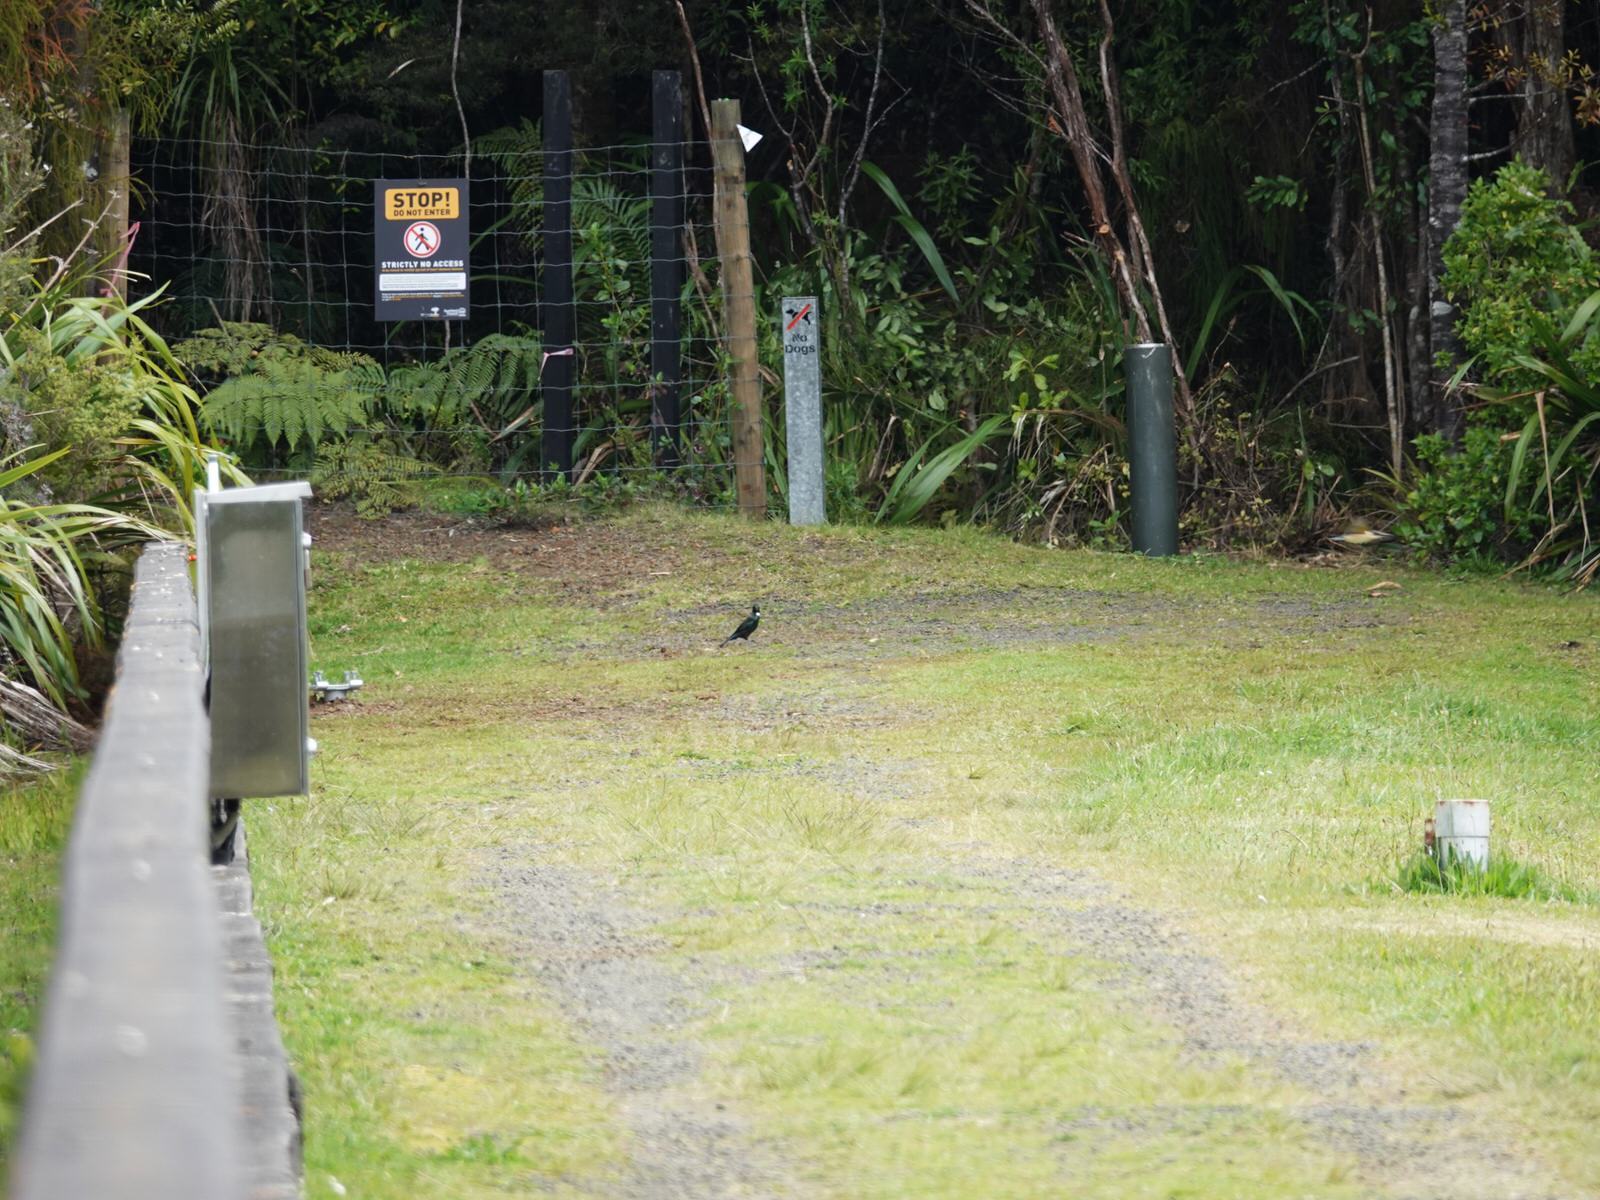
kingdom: Animalia
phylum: Chordata
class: Aves
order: Passeriformes
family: Meliphagidae
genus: Prosthemadera
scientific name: Prosthemadera novaeseelandiae
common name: Tui
